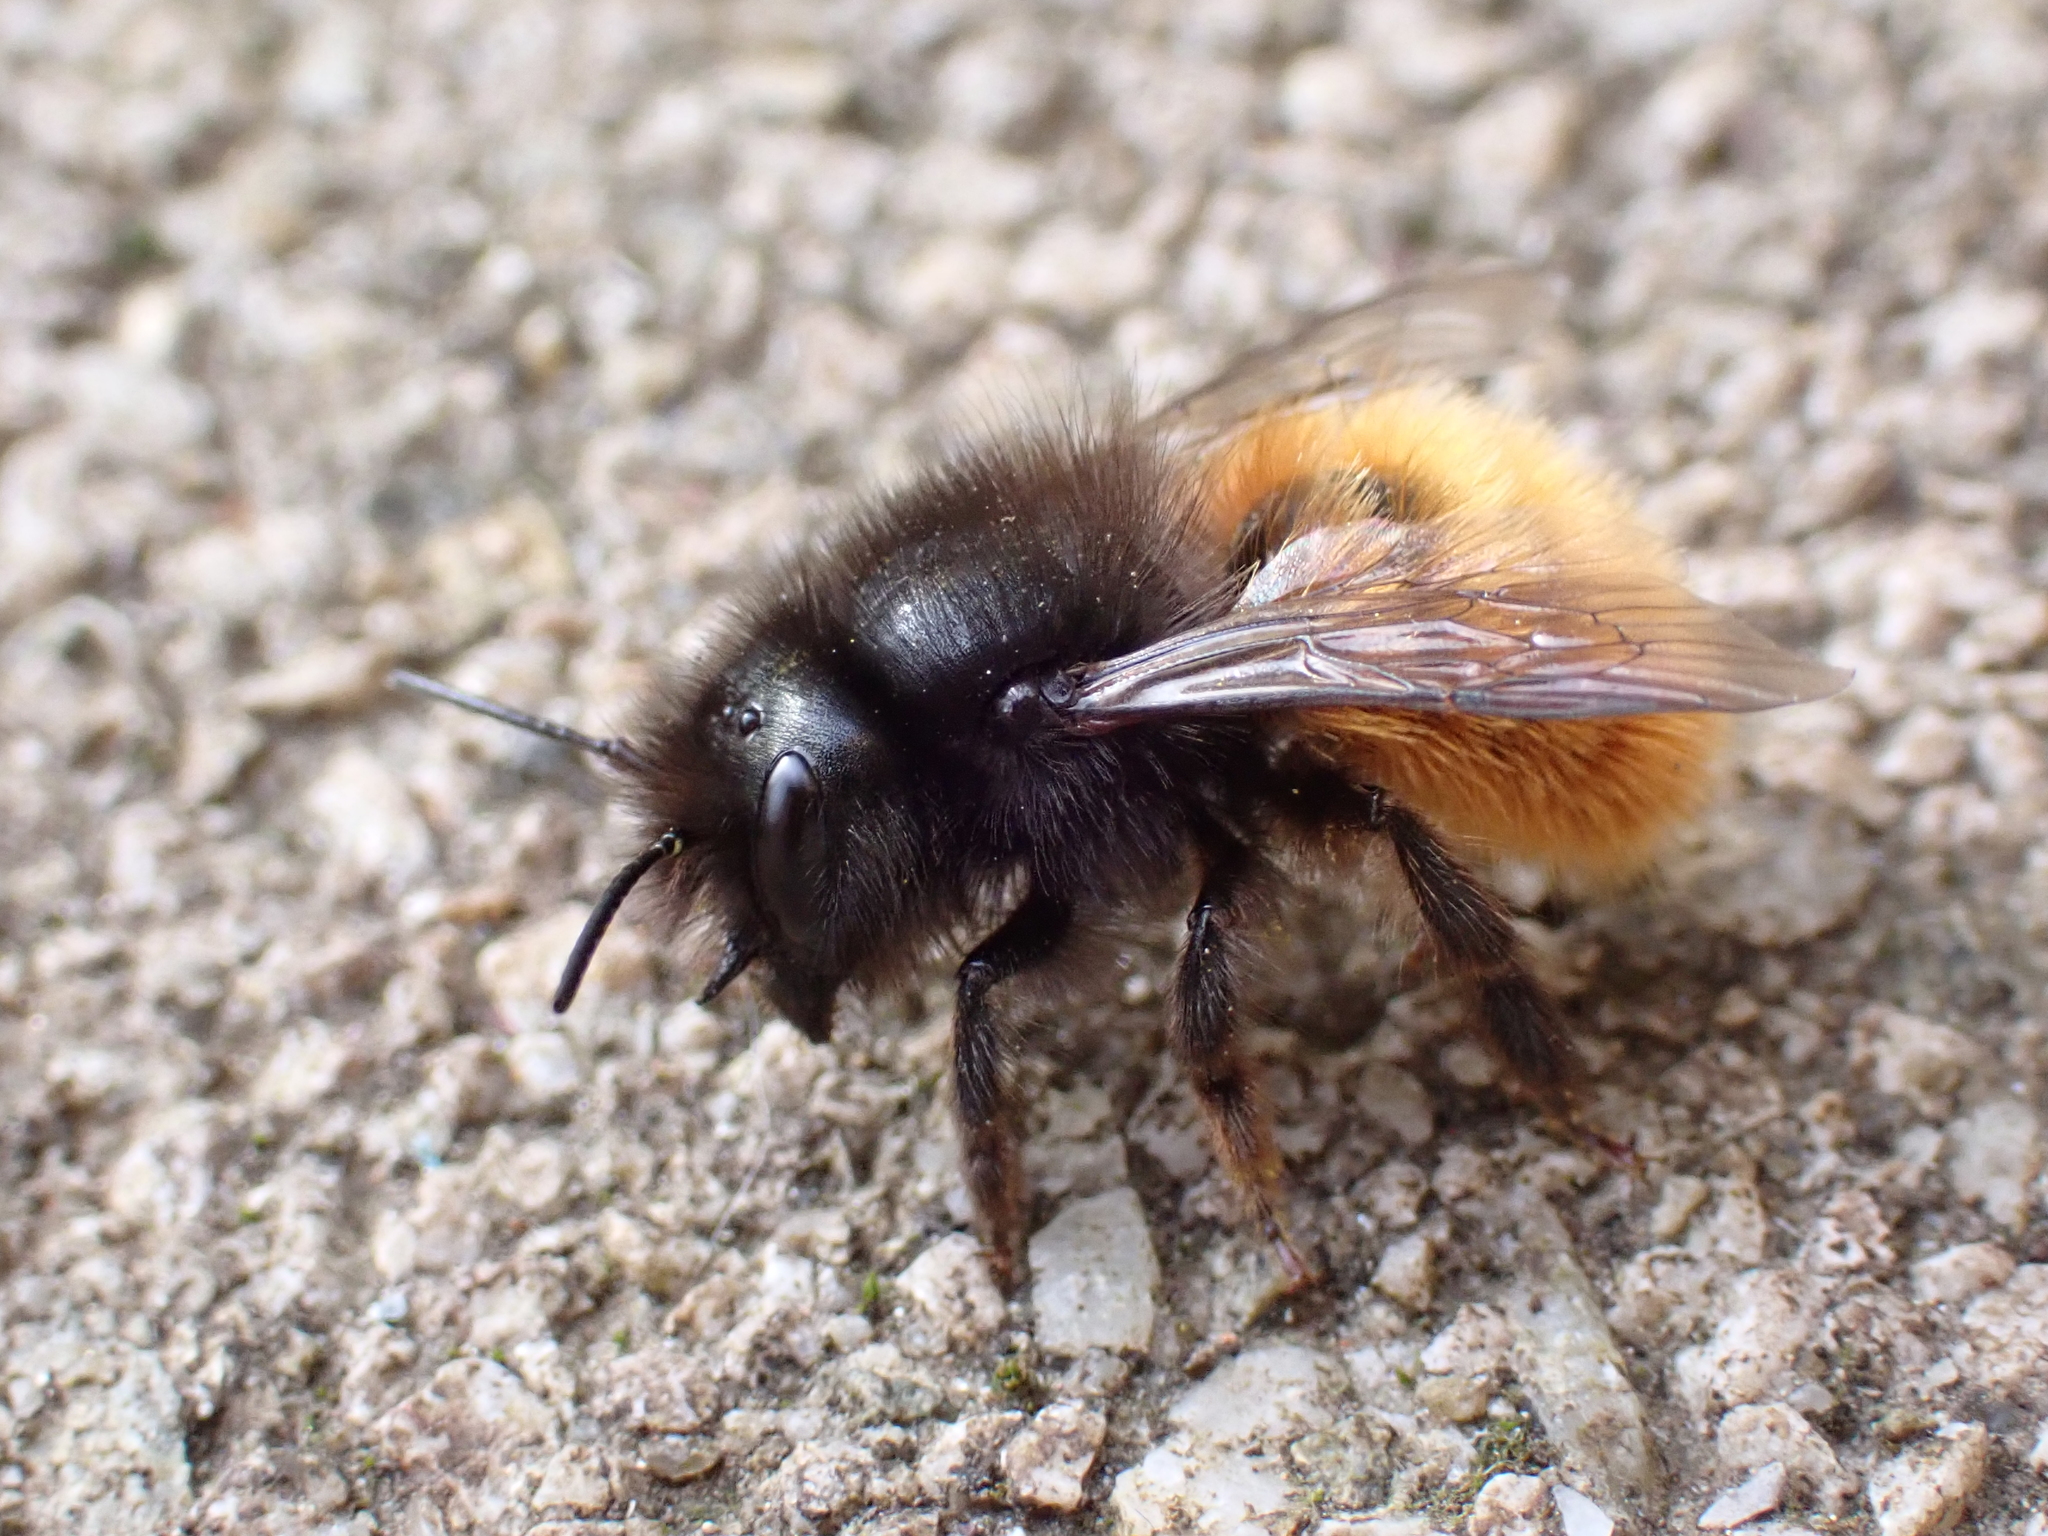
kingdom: Animalia
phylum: Arthropoda
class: Insecta
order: Hymenoptera
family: Megachilidae
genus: Osmia
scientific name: Osmia cornuta
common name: Mason bee
